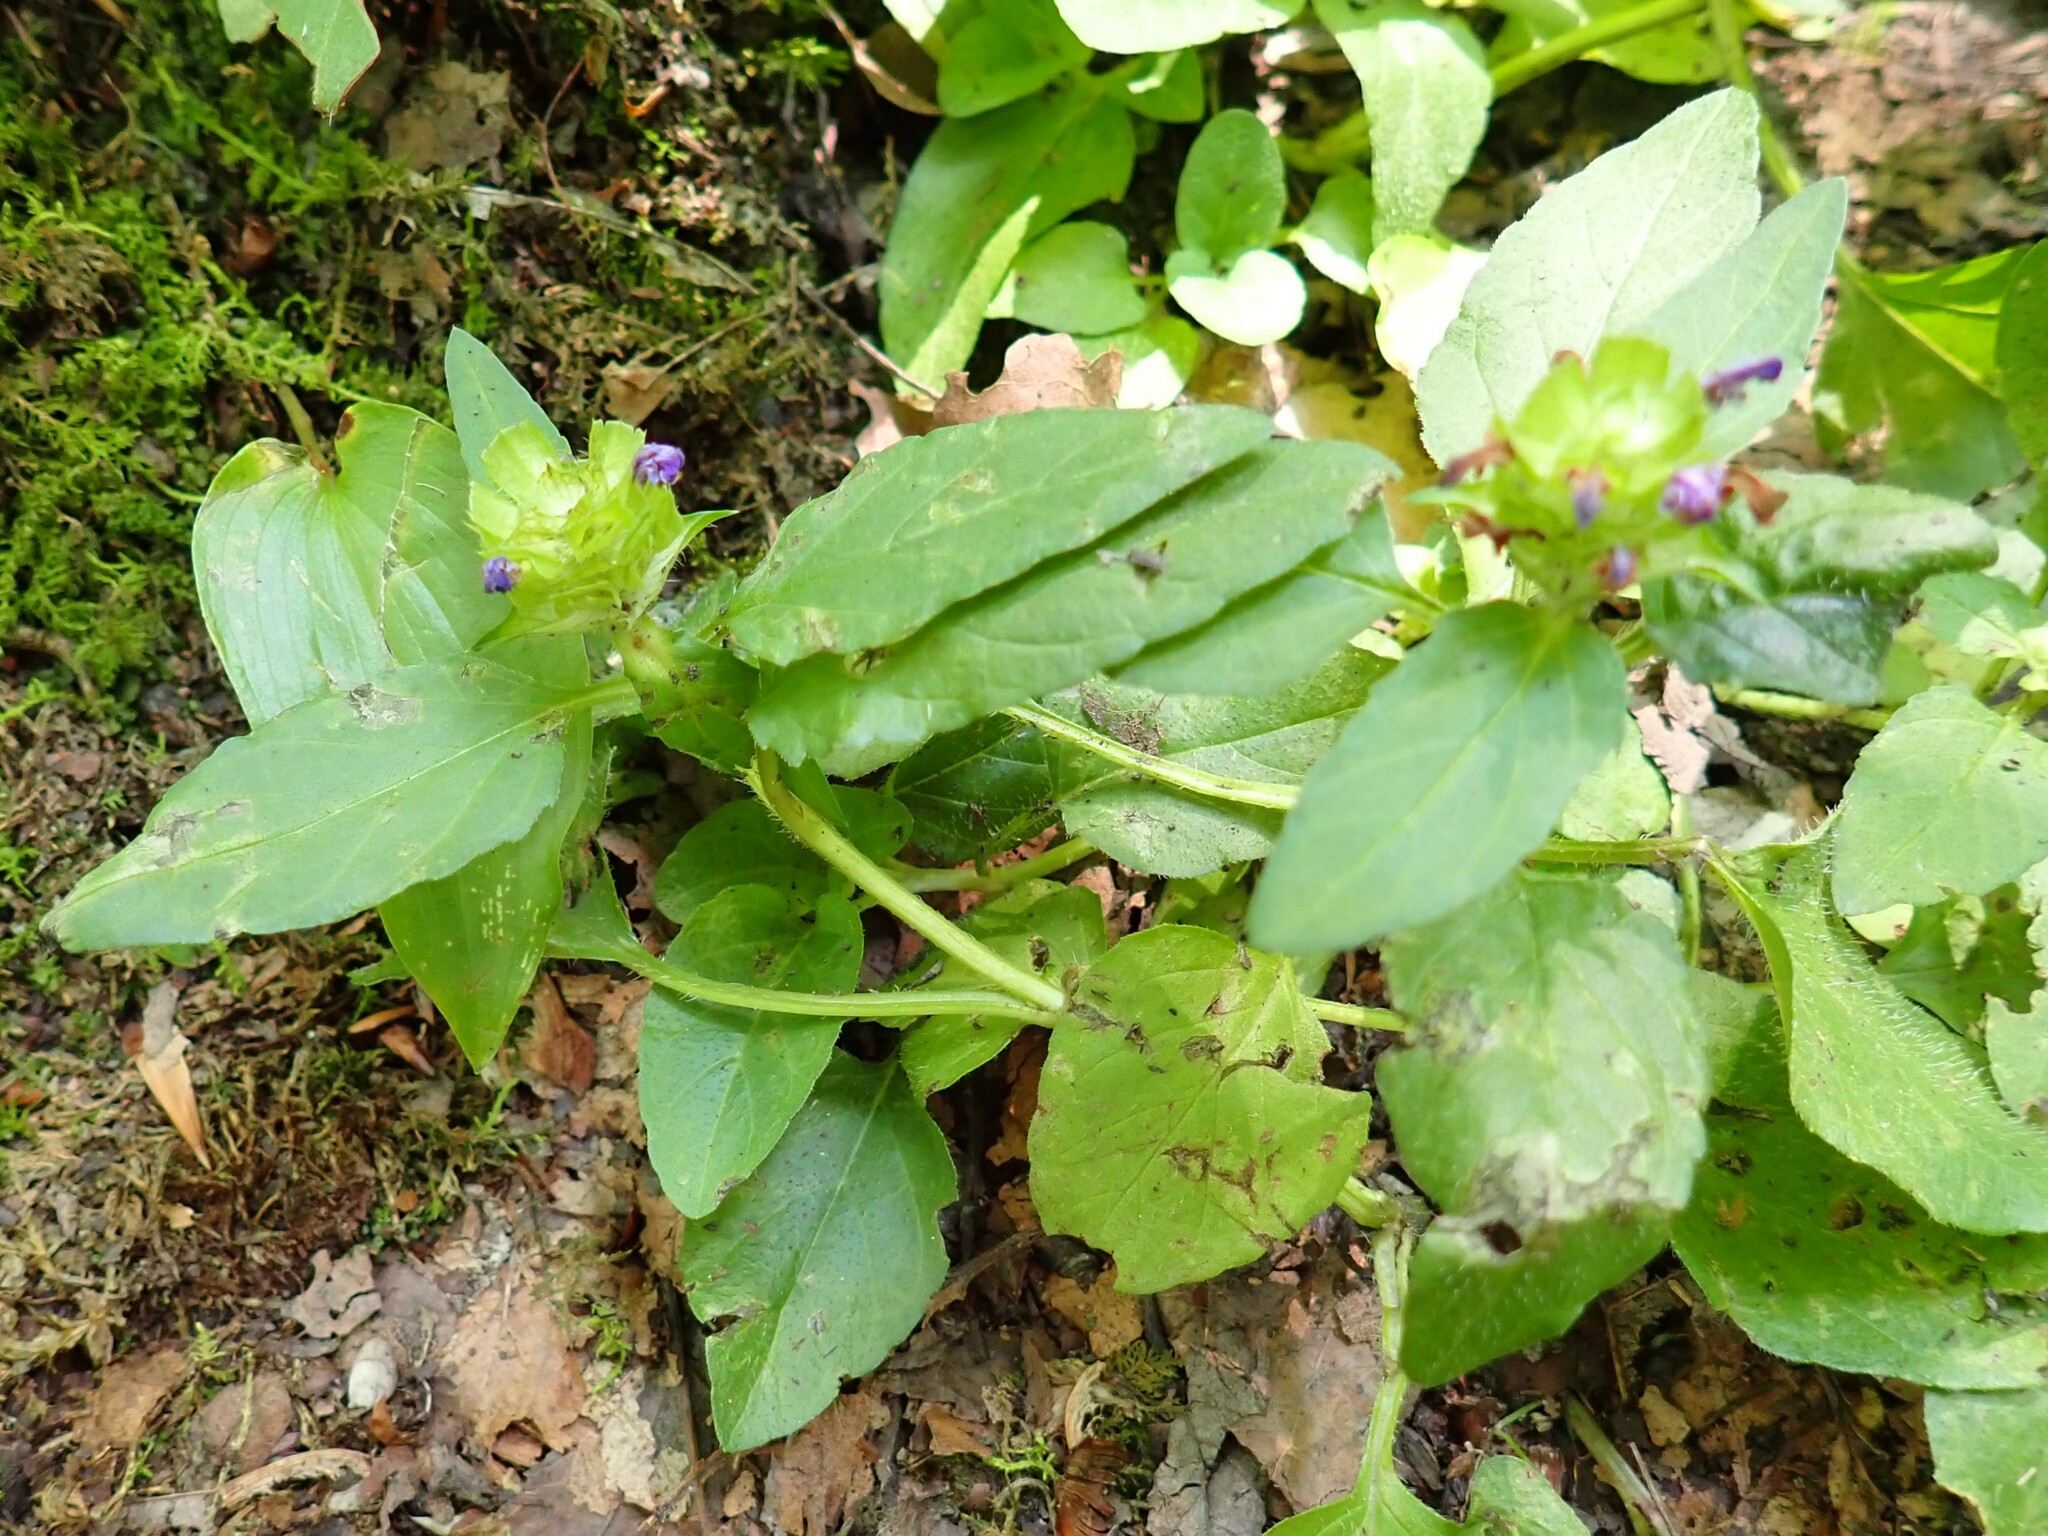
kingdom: Plantae
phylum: Tracheophyta
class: Magnoliopsida
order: Lamiales
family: Lamiaceae
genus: Prunella
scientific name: Prunella vulgaris
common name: Heal-all
